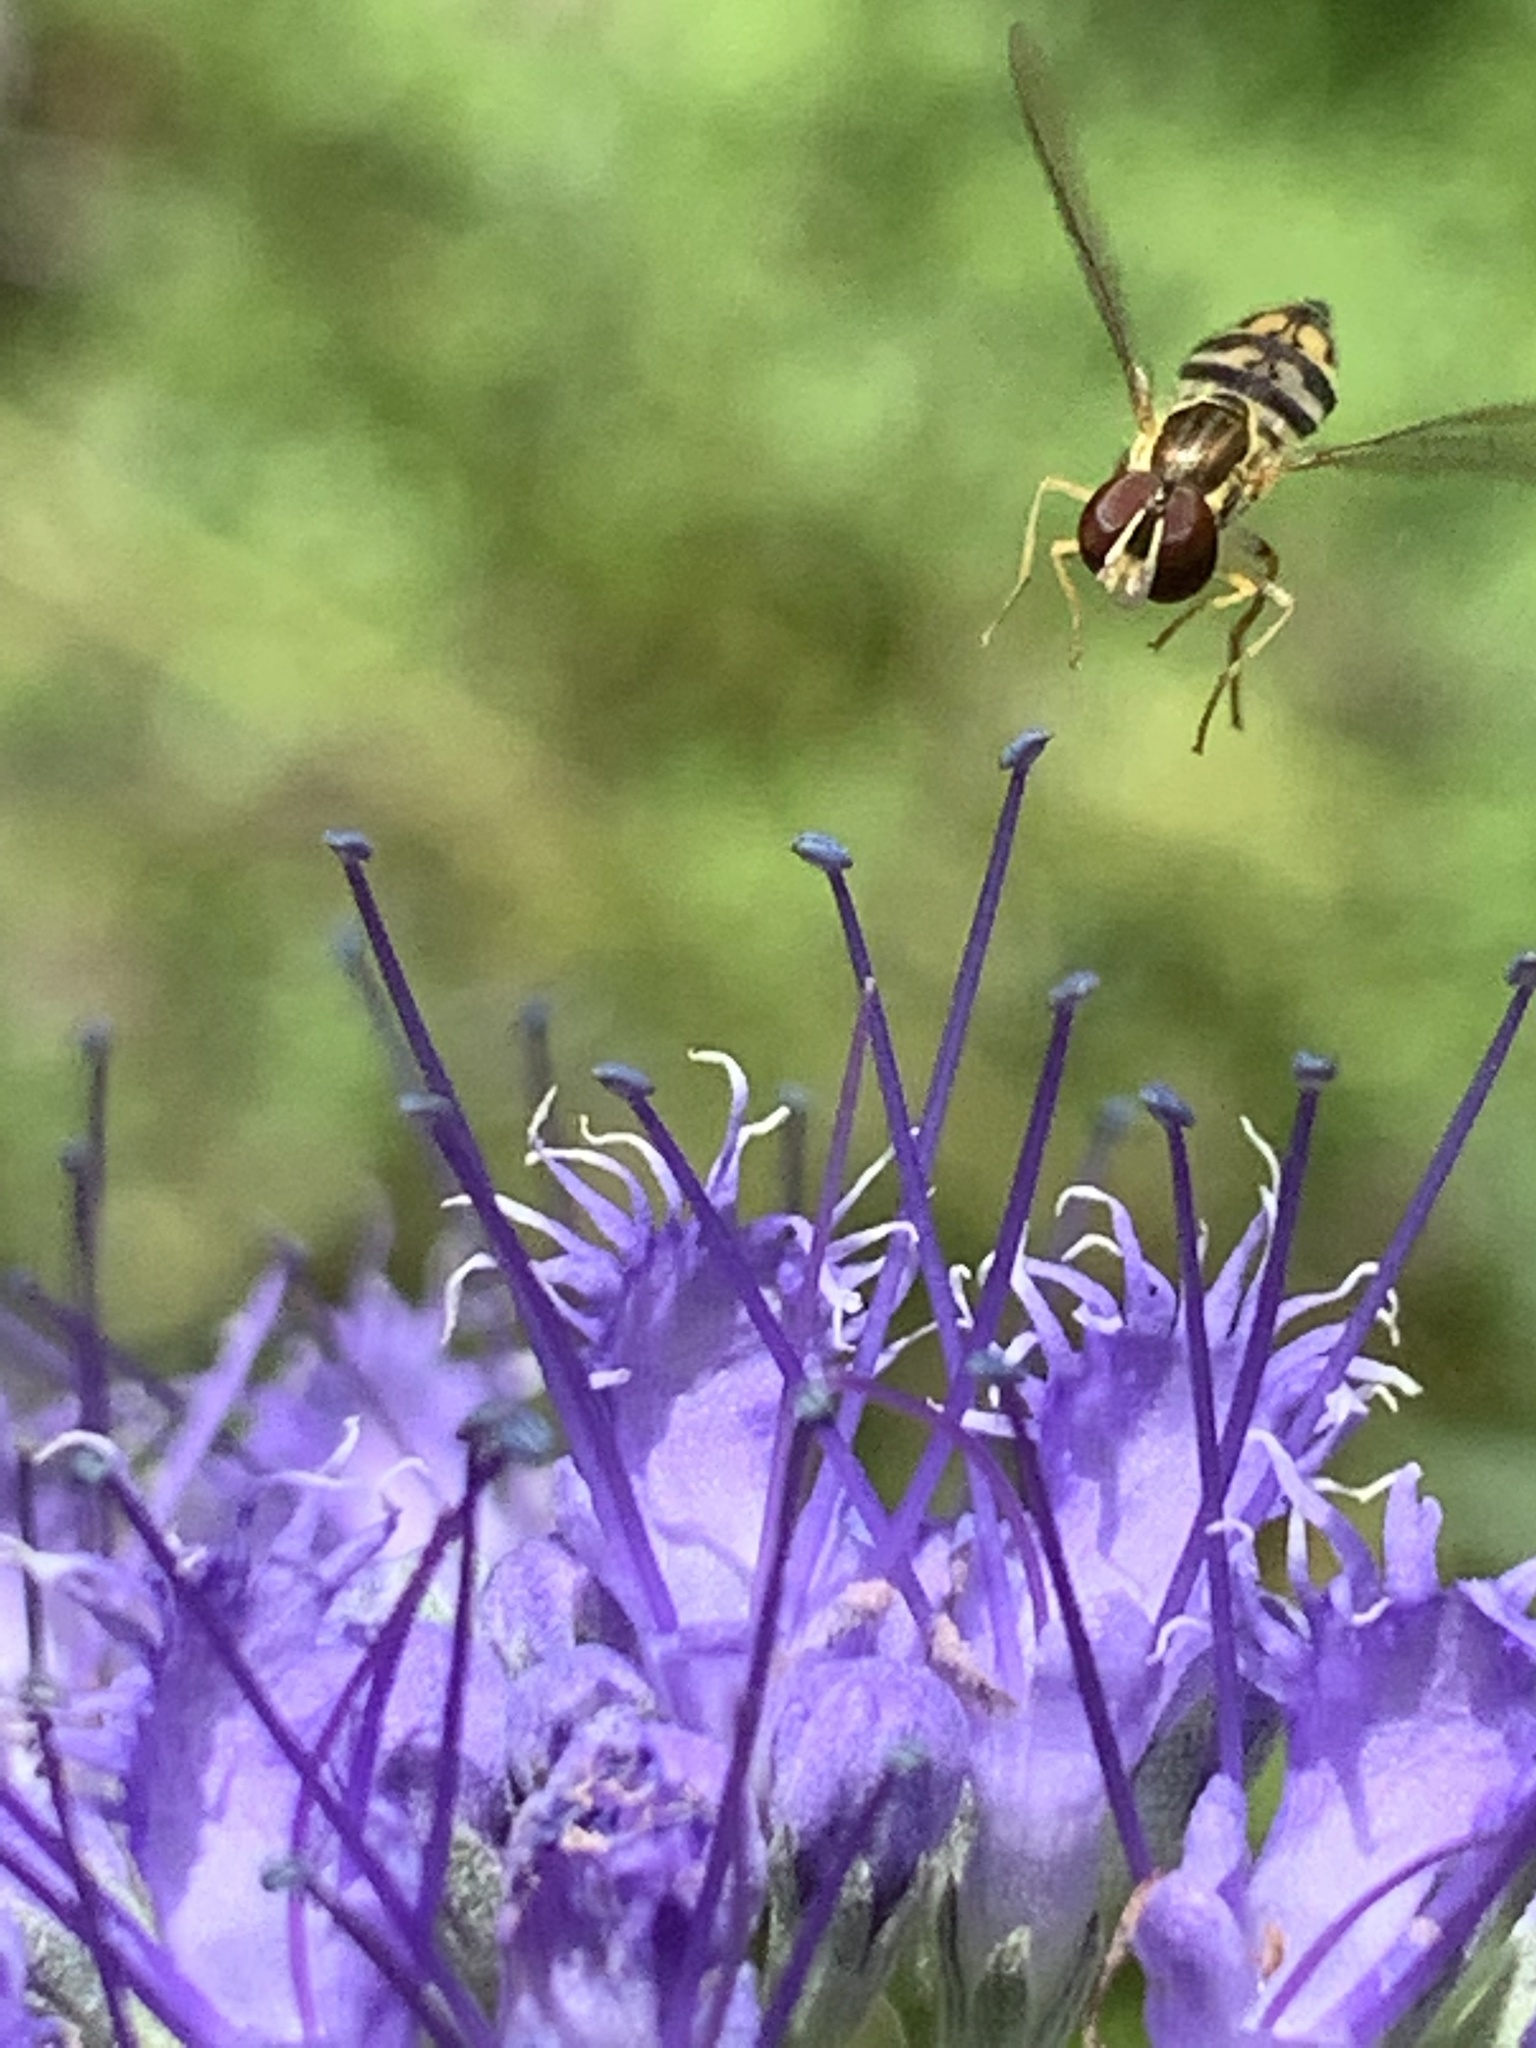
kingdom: Animalia
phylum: Arthropoda
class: Insecta
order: Diptera
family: Syrphidae
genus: Toxomerus
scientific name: Toxomerus geminatus
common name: Eastern calligrapher
